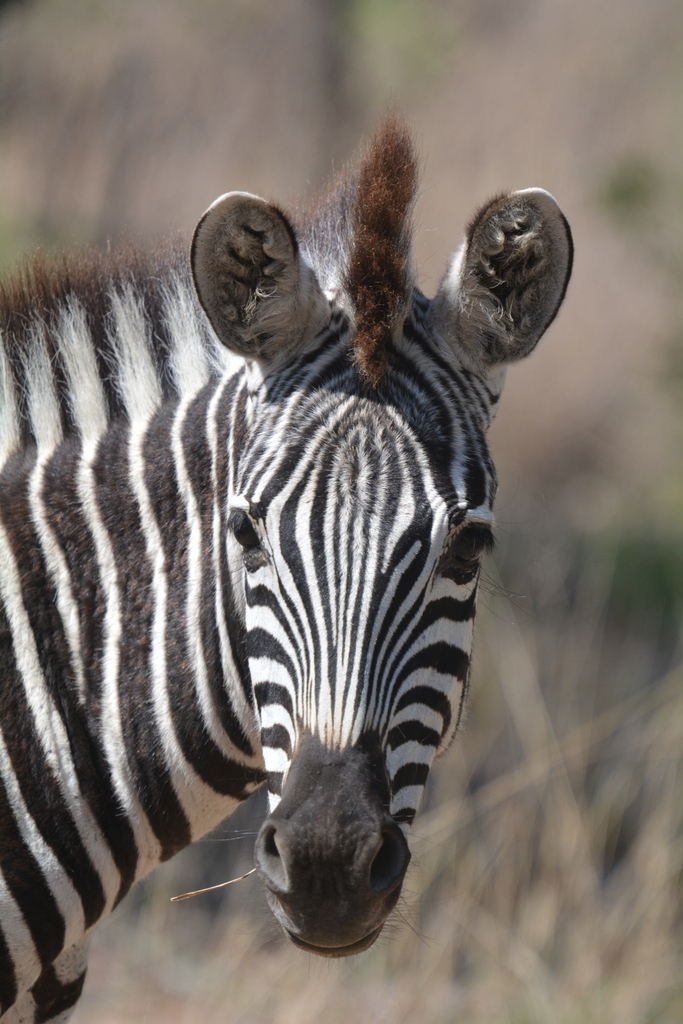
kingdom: Animalia
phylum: Chordata
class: Mammalia
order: Perissodactyla
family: Equidae
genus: Equus
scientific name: Equus quagga
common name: Plains zebra
